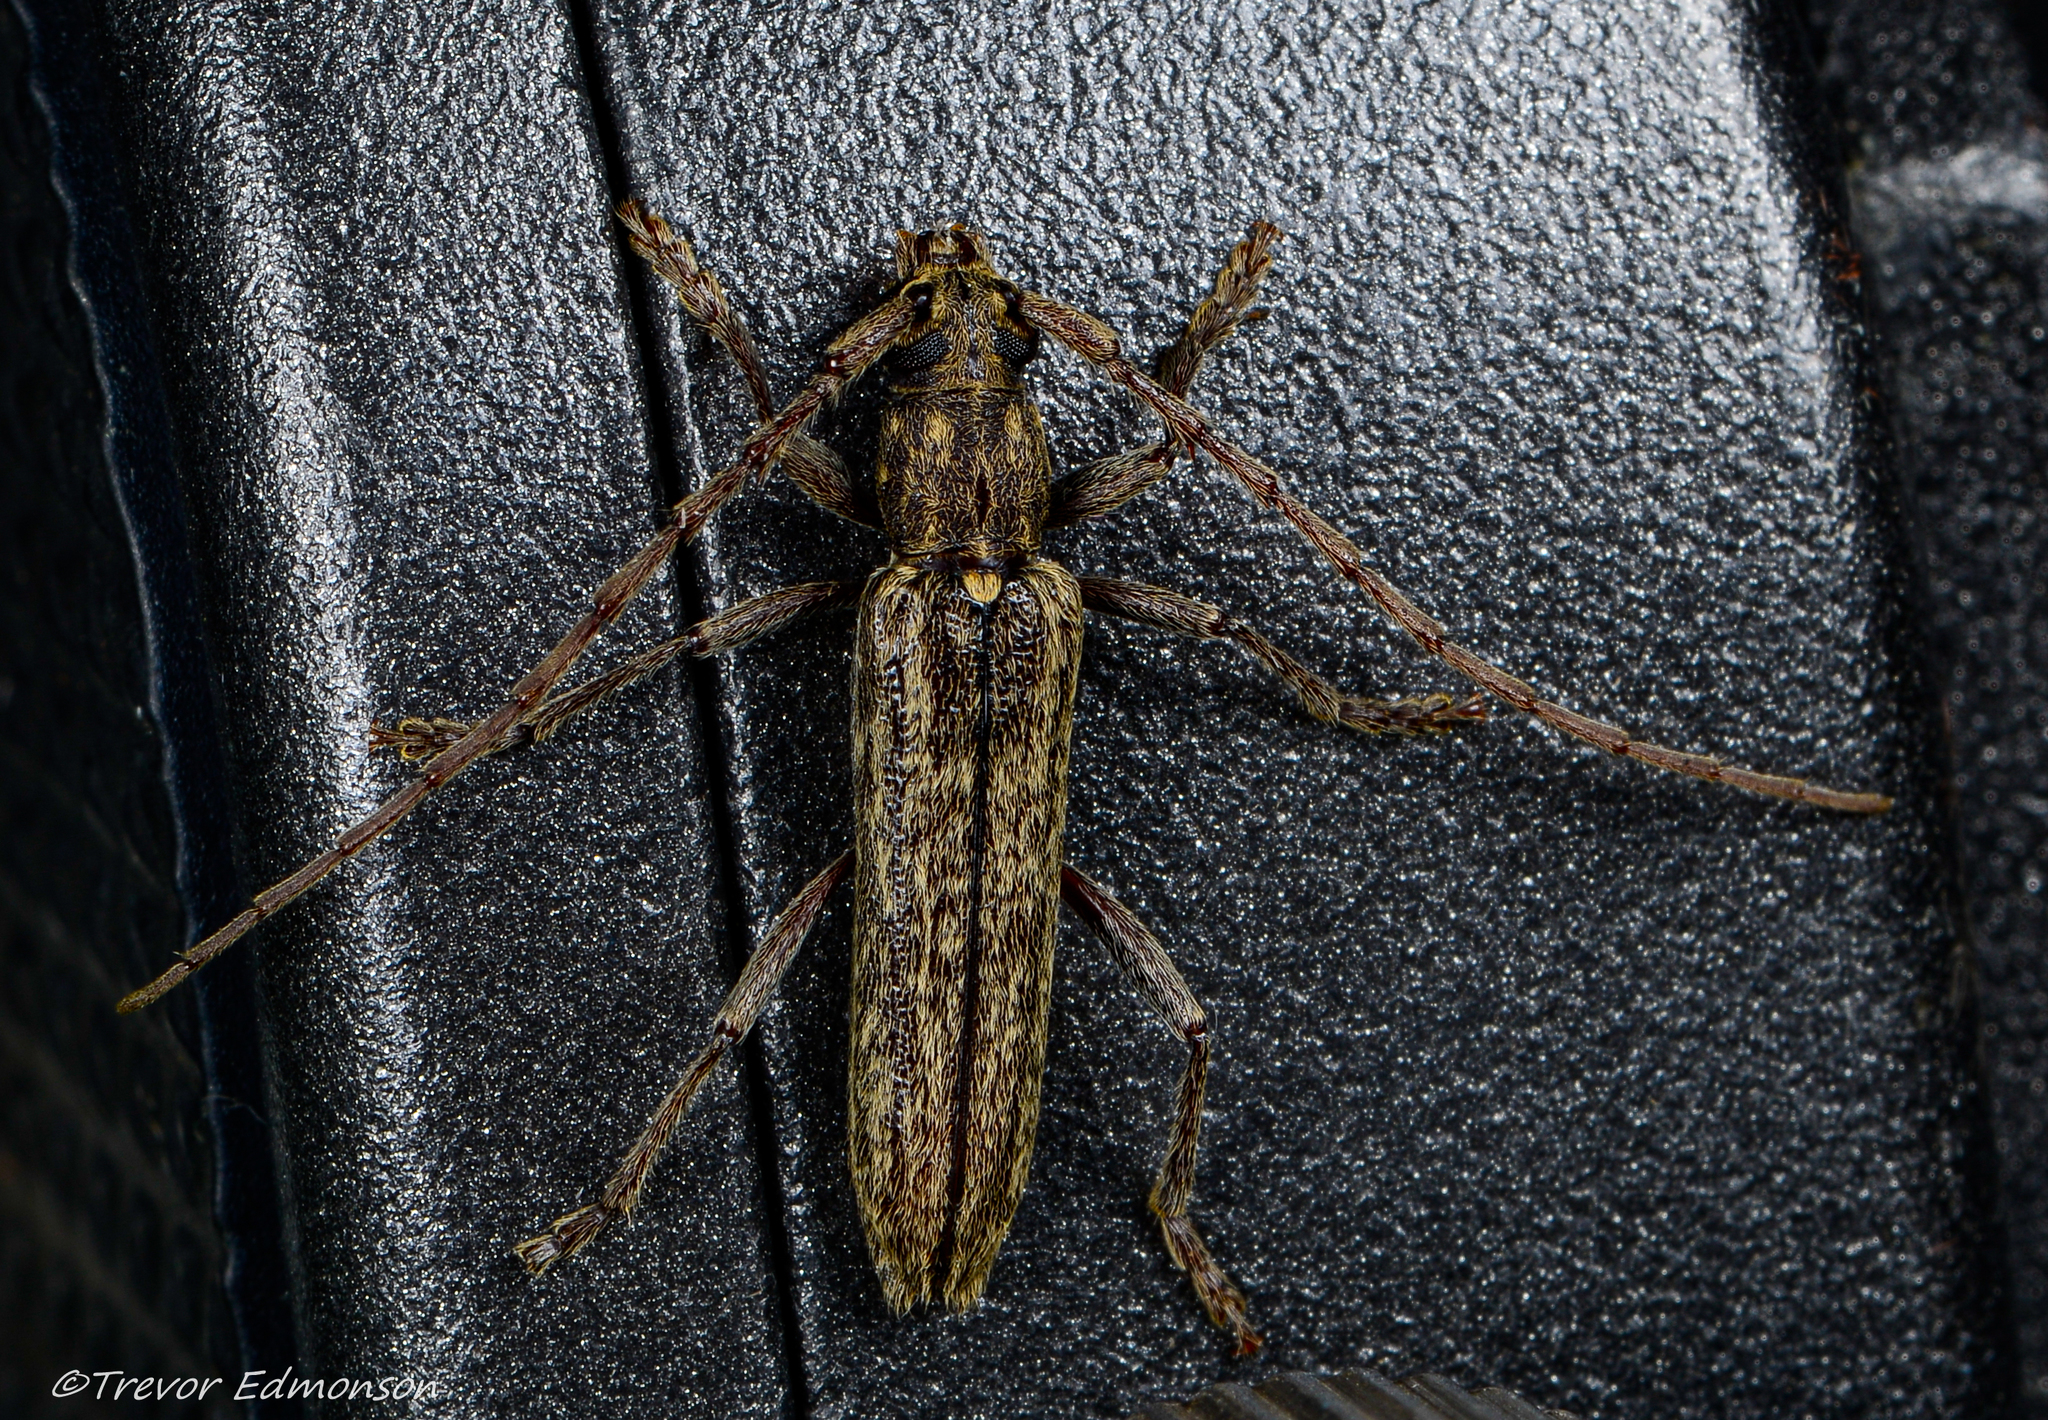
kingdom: Animalia
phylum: Arthropoda
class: Insecta
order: Coleoptera
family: Cerambycidae
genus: Anelaphus
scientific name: Anelaphus villosus
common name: Twig pruner
